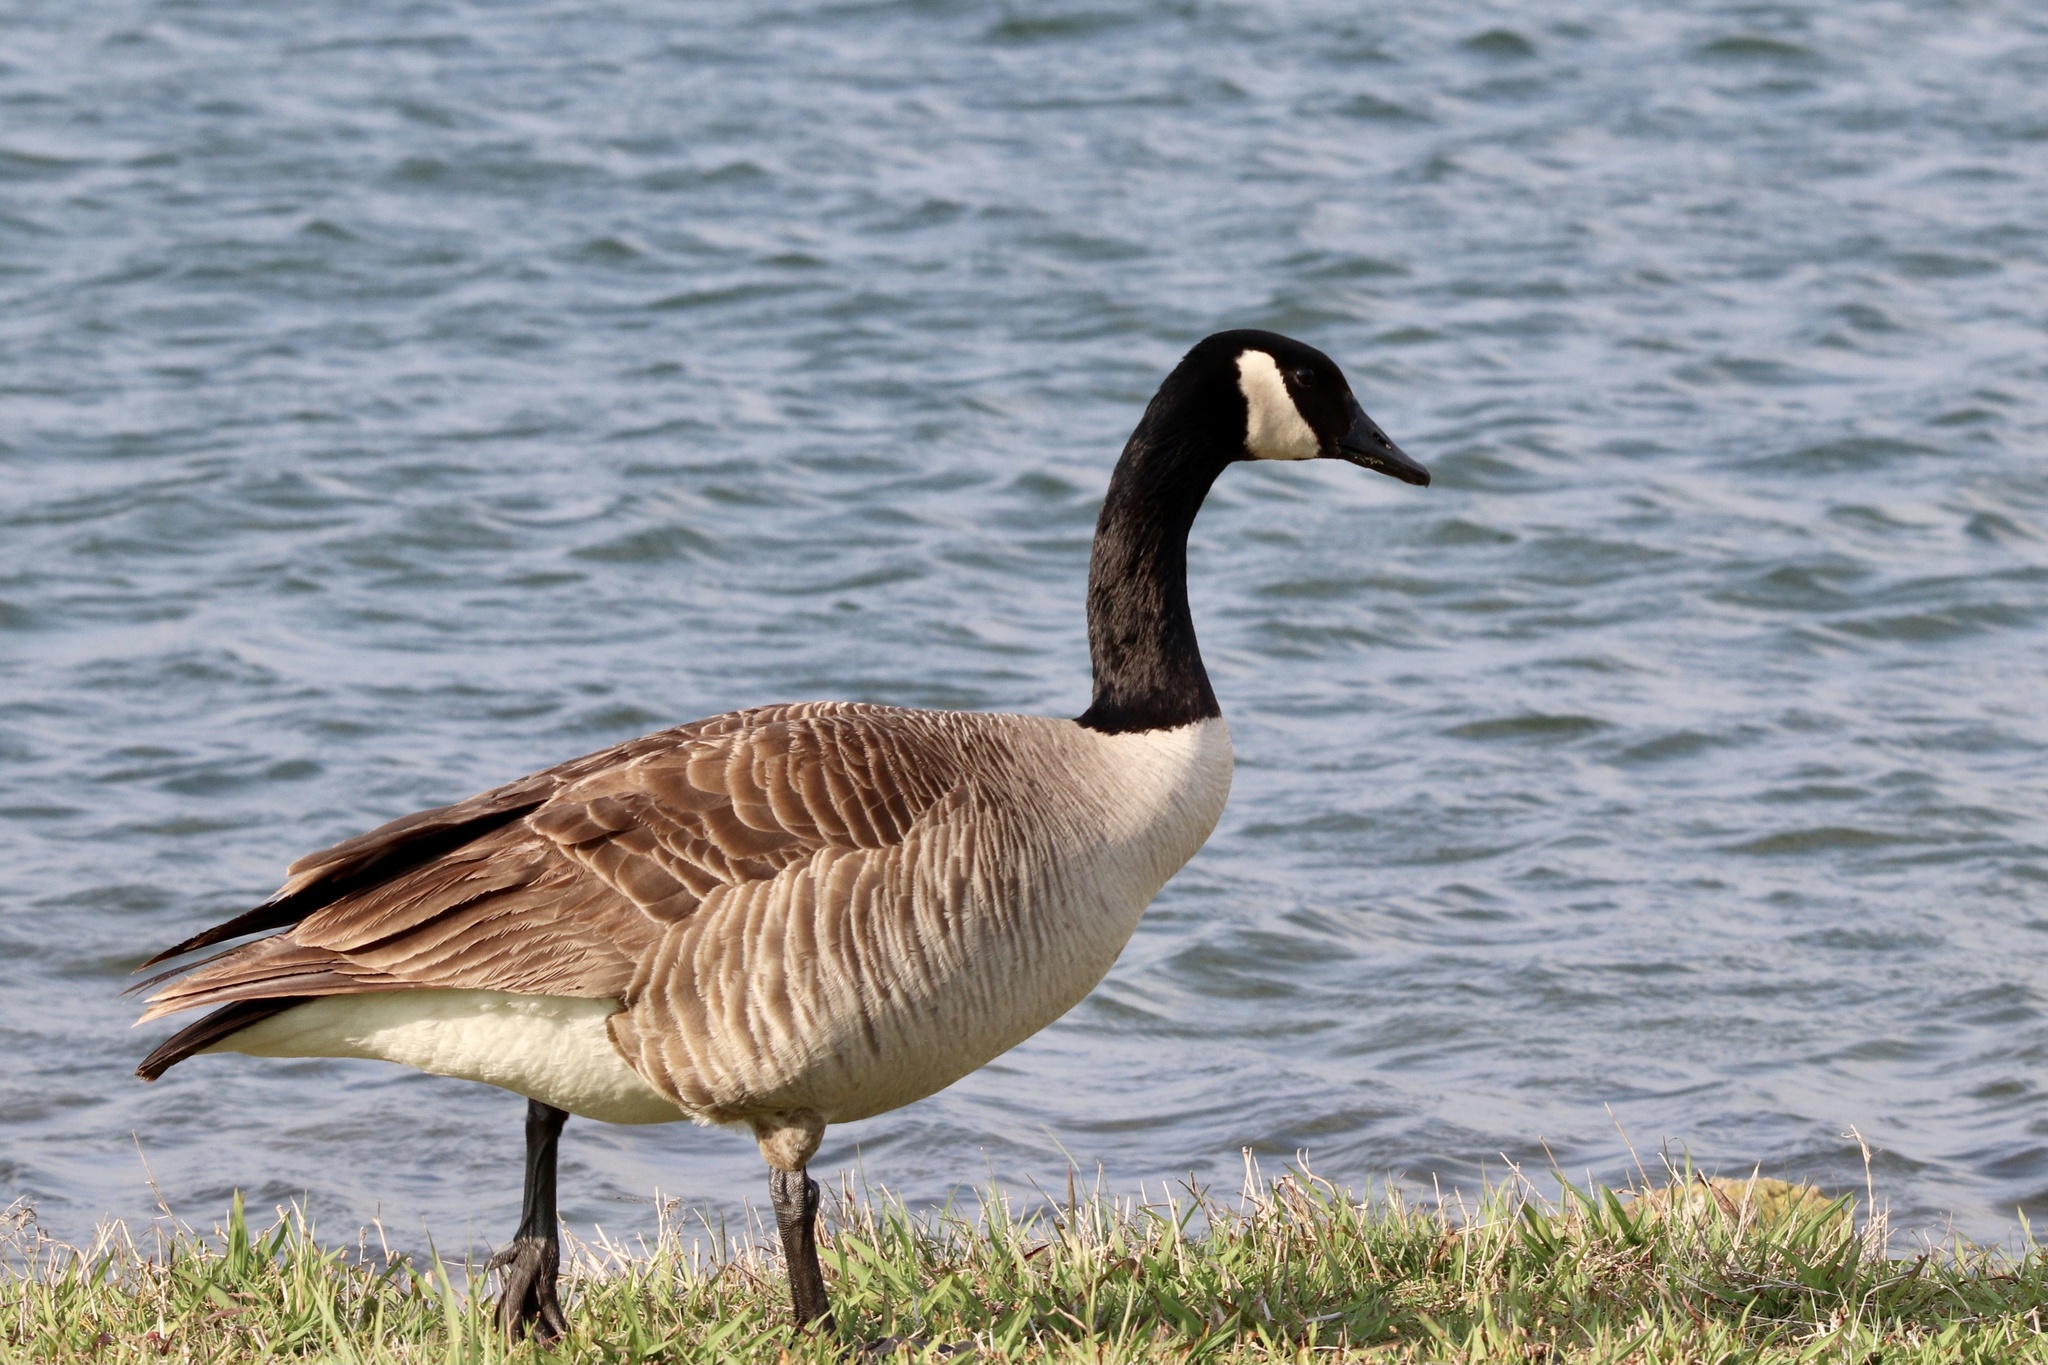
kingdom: Animalia
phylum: Chordata
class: Aves
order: Anseriformes
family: Anatidae
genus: Branta
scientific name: Branta canadensis
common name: Canada goose
